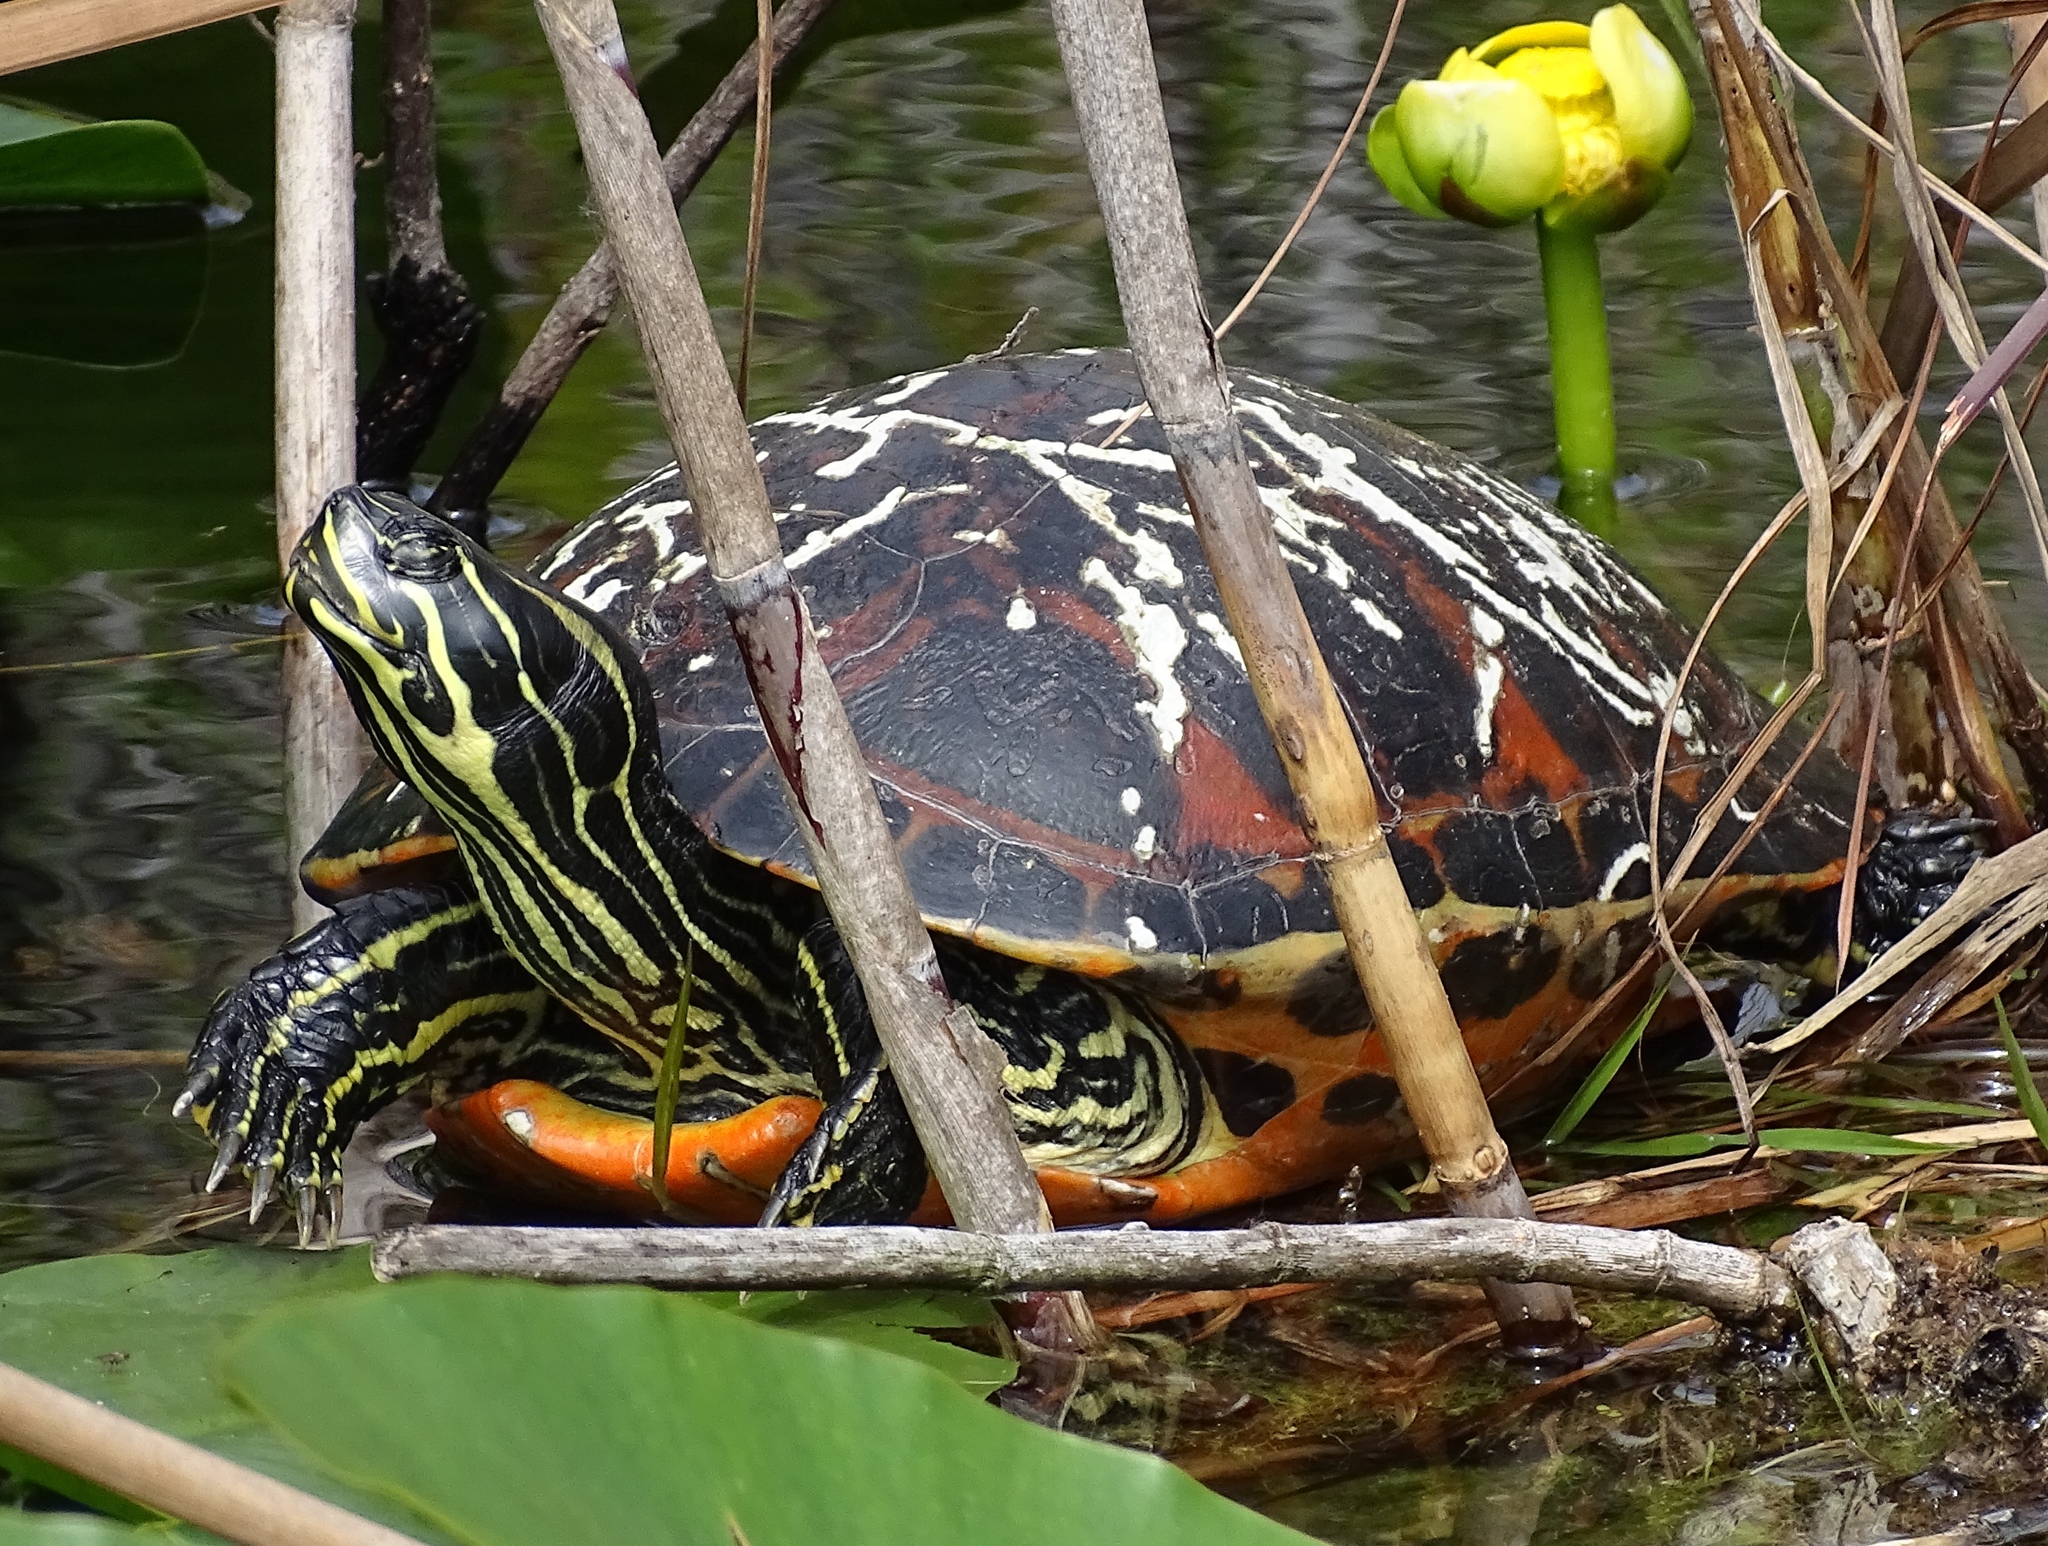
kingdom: Animalia
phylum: Chordata
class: Testudines
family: Emydidae
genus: Pseudemys
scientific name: Pseudemys nelsoni
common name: Florida red-bellied turtle
